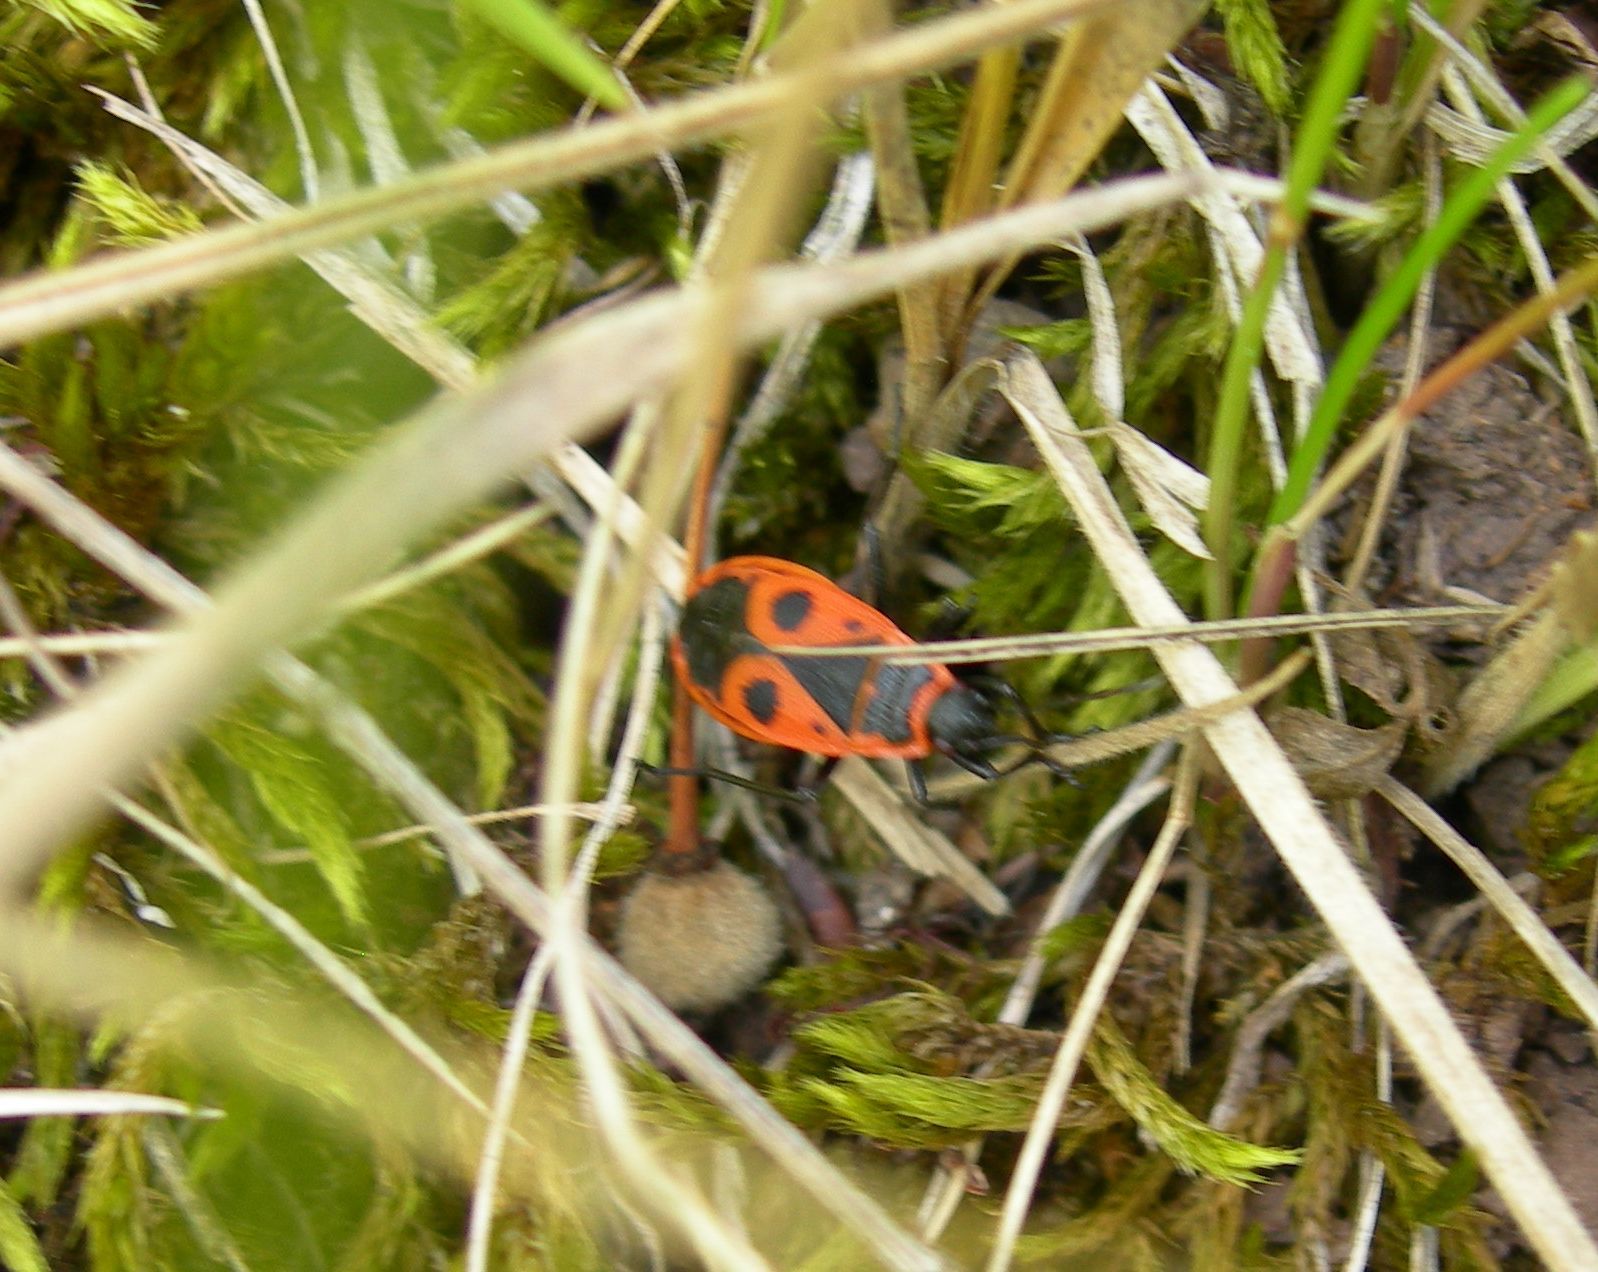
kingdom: Animalia
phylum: Arthropoda
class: Insecta
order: Hemiptera
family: Pyrrhocoridae
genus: Pyrrhocoris
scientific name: Pyrrhocoris apterus
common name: Firebug
